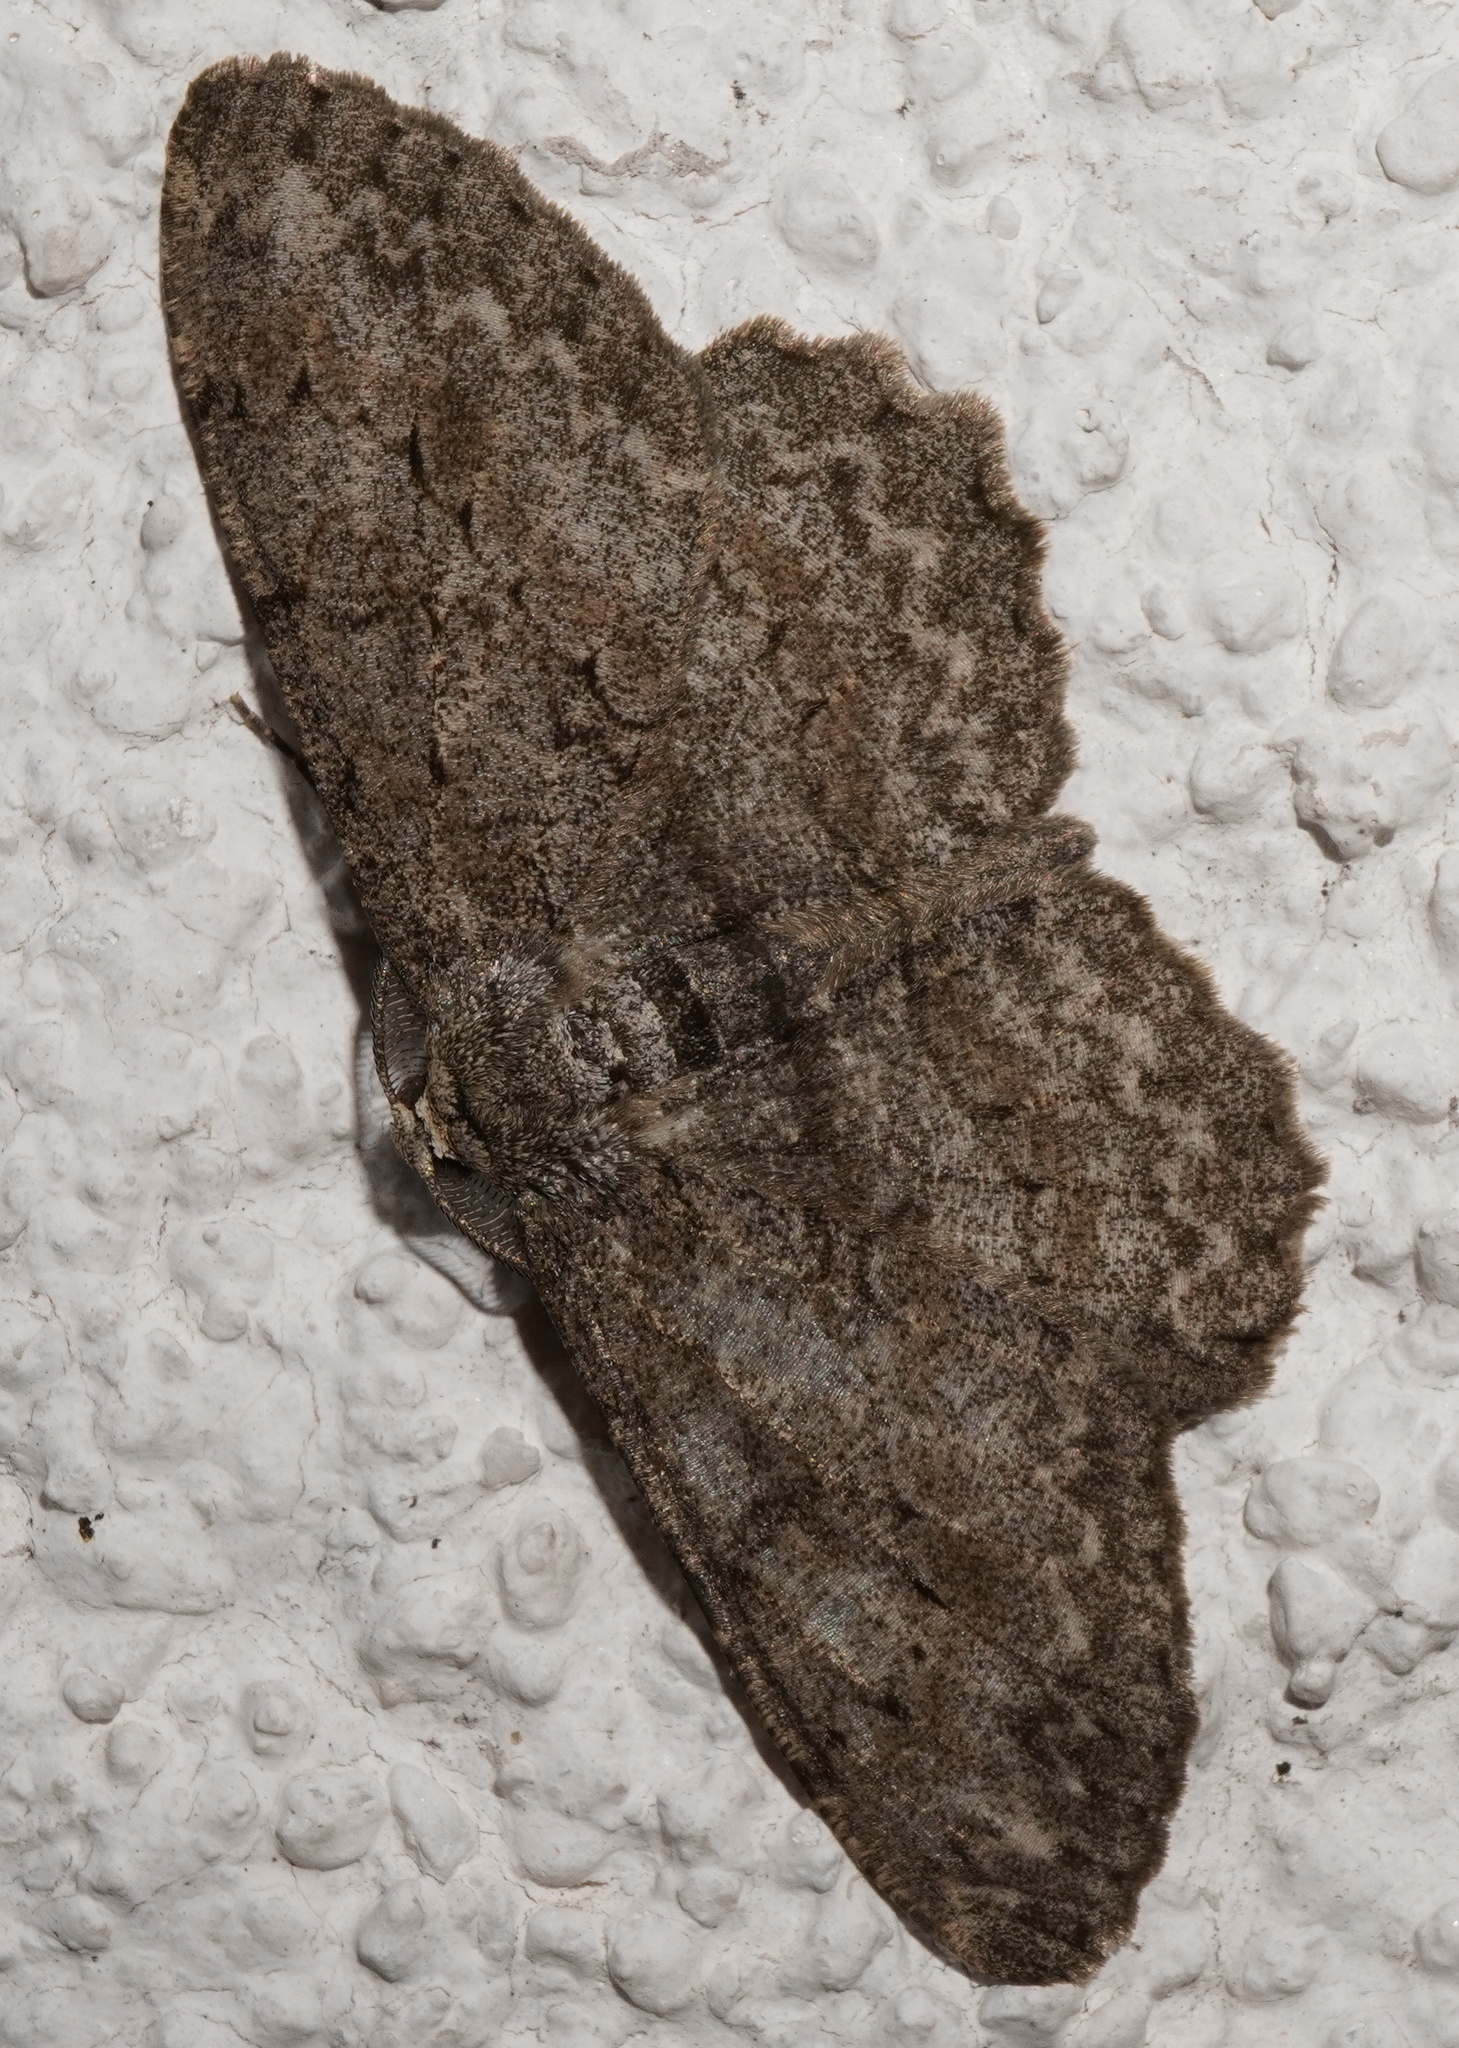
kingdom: Animalia
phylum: Arthropoda
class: Insecta
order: Lepidoptera
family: Geometridae
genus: Hypomecis
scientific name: Hypomecis punctinalis
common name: Pale oak beauty
